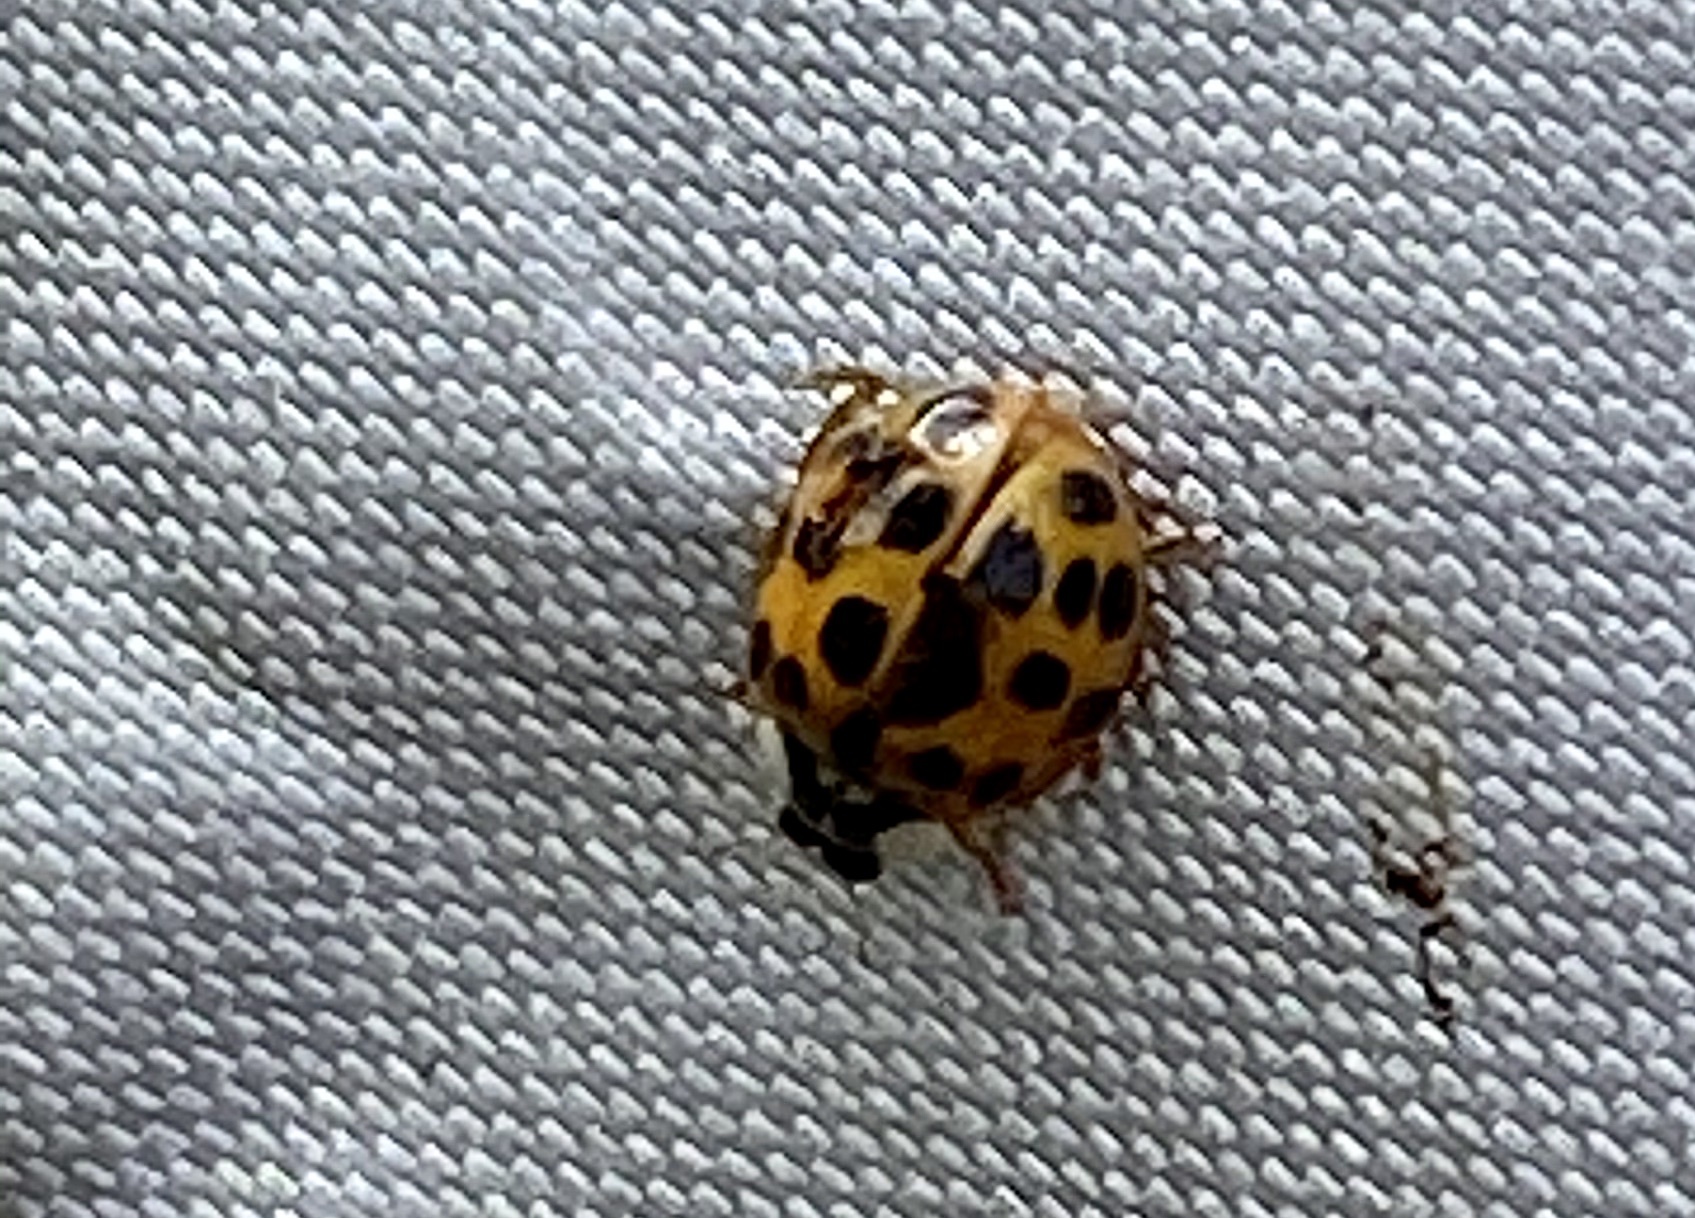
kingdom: Animalia
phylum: Arthropoda
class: Insecta
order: Coleoptera
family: Coccinellidae
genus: Harmonia
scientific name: Harmonia axyridis
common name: Harlequin ladybird
